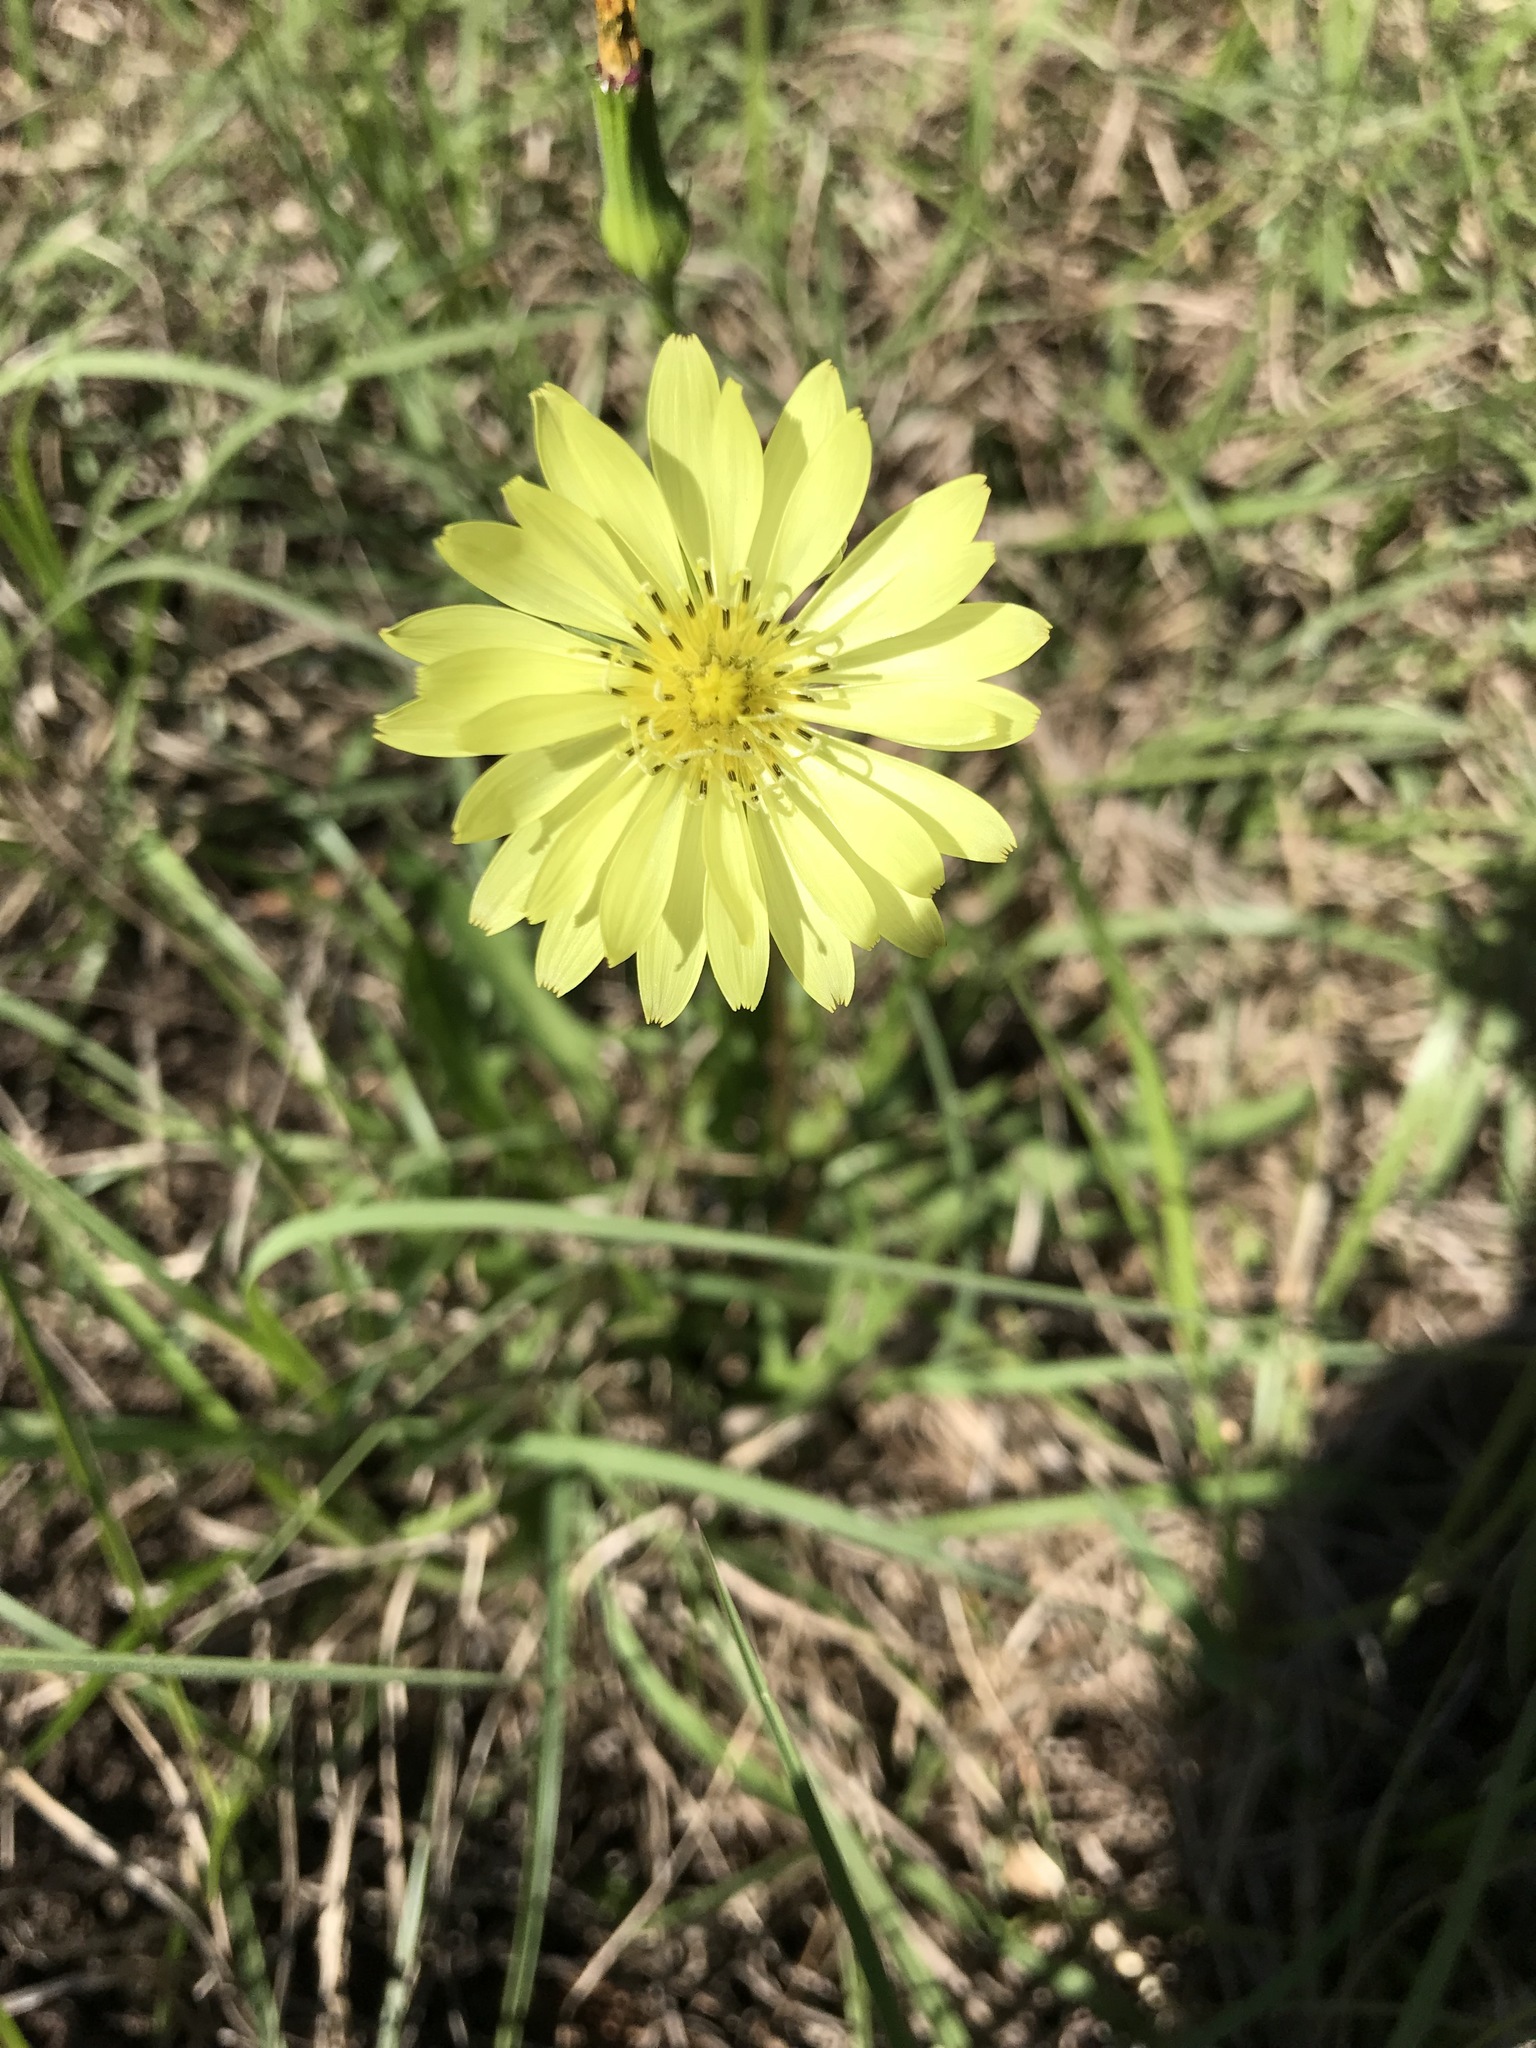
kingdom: Plantae
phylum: Tracheophyta
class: Magnoliopsida
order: Asterales
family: Asteraceae
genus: Pyrrhopappus
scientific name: Pyrrhopappus carolinianus
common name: Carolina desert-chicory
